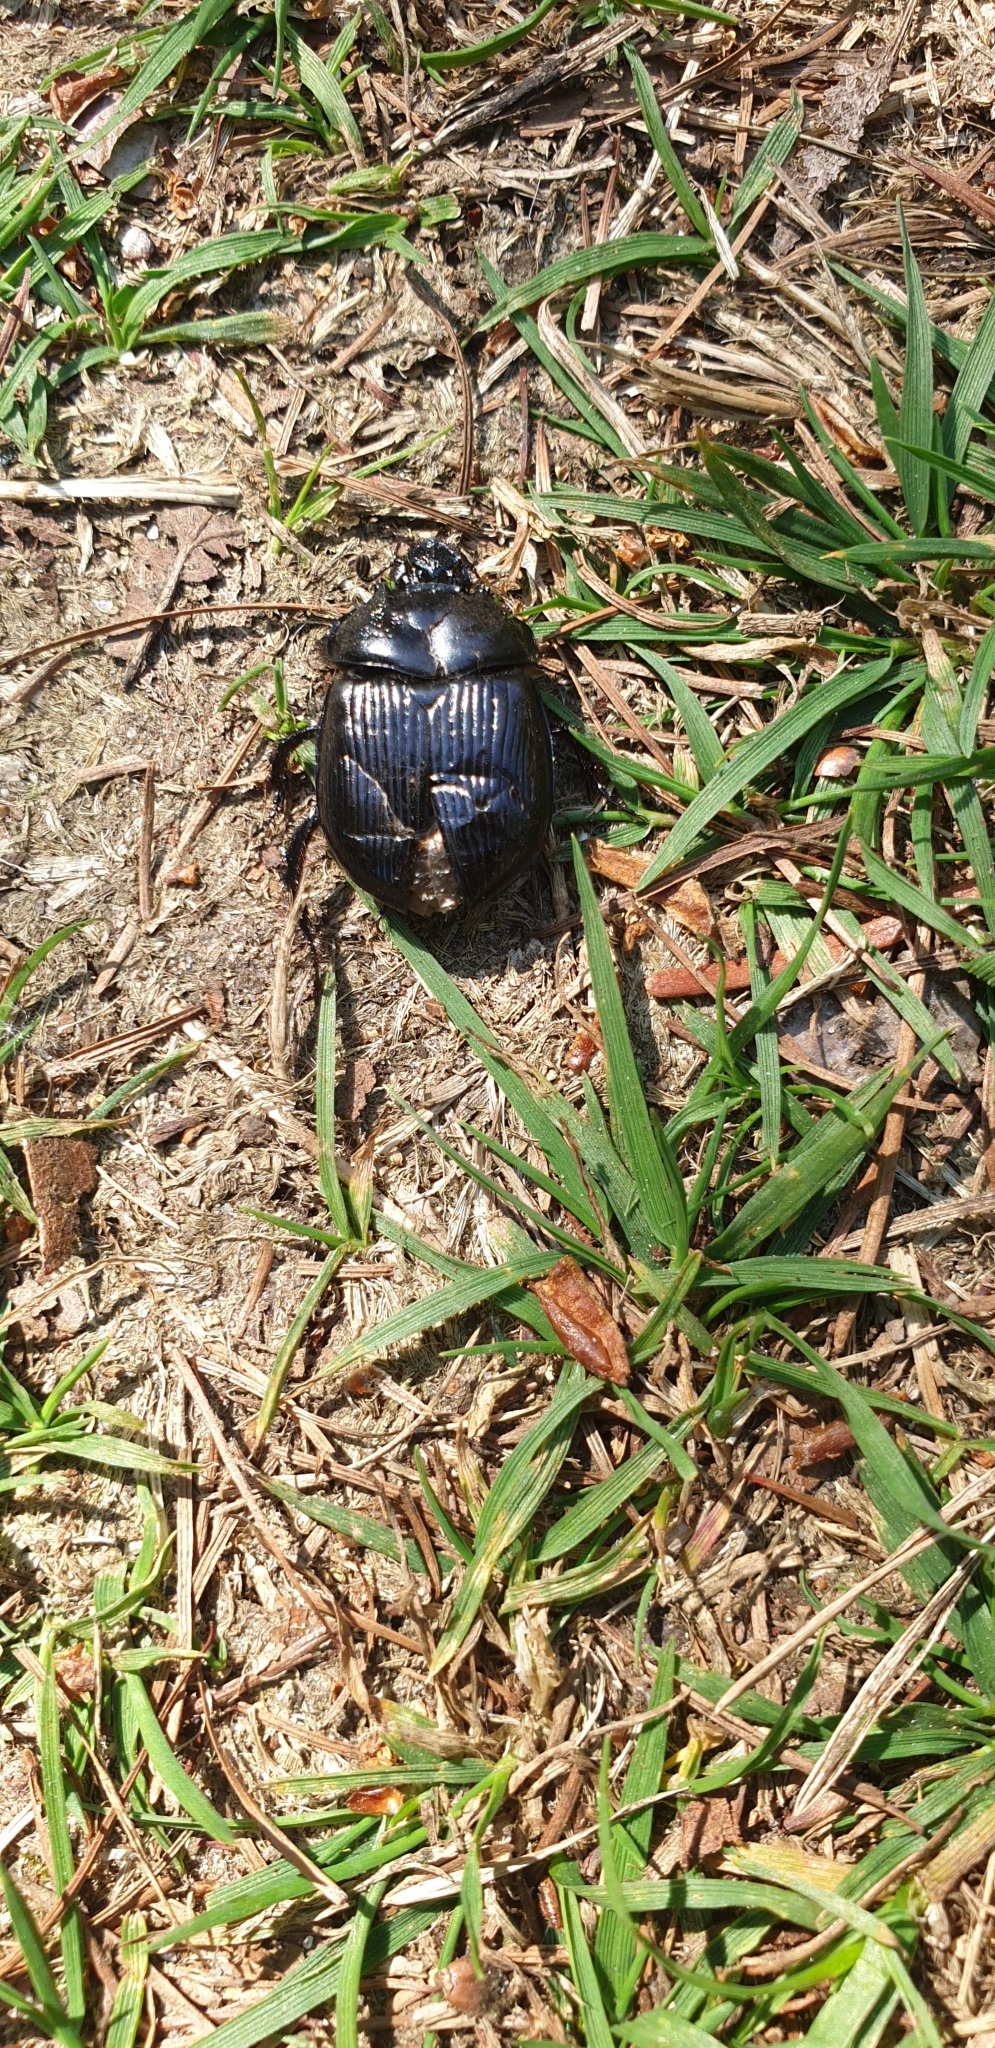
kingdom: Animalia
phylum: Arthropoda
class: Insecta
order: Coleoptera
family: Geotrupidae
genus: Typhaeus
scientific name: Typhaeus typhoeus
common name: Minotaur beetle
